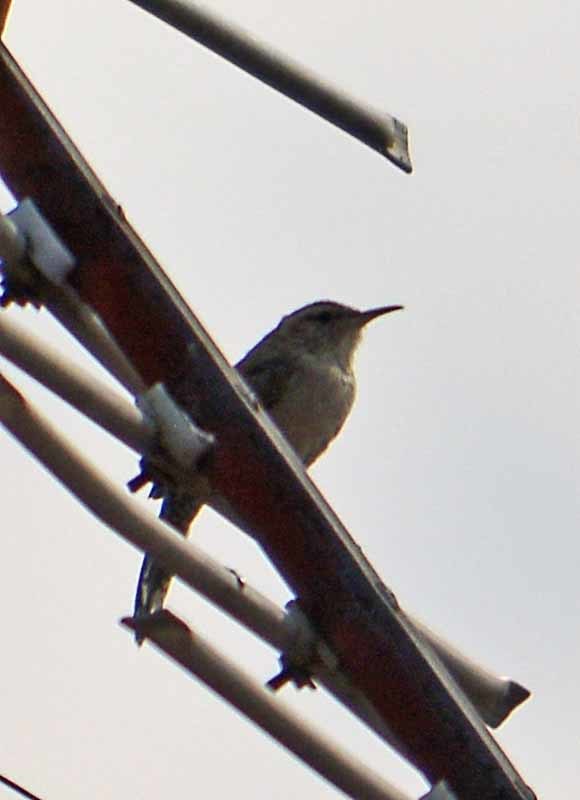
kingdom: Animalia
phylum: Chordata
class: Aves
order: Passeriformes
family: Troglodytidae
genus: Thryomanes
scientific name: Thryomanes bewickii
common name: Bewick's wren
